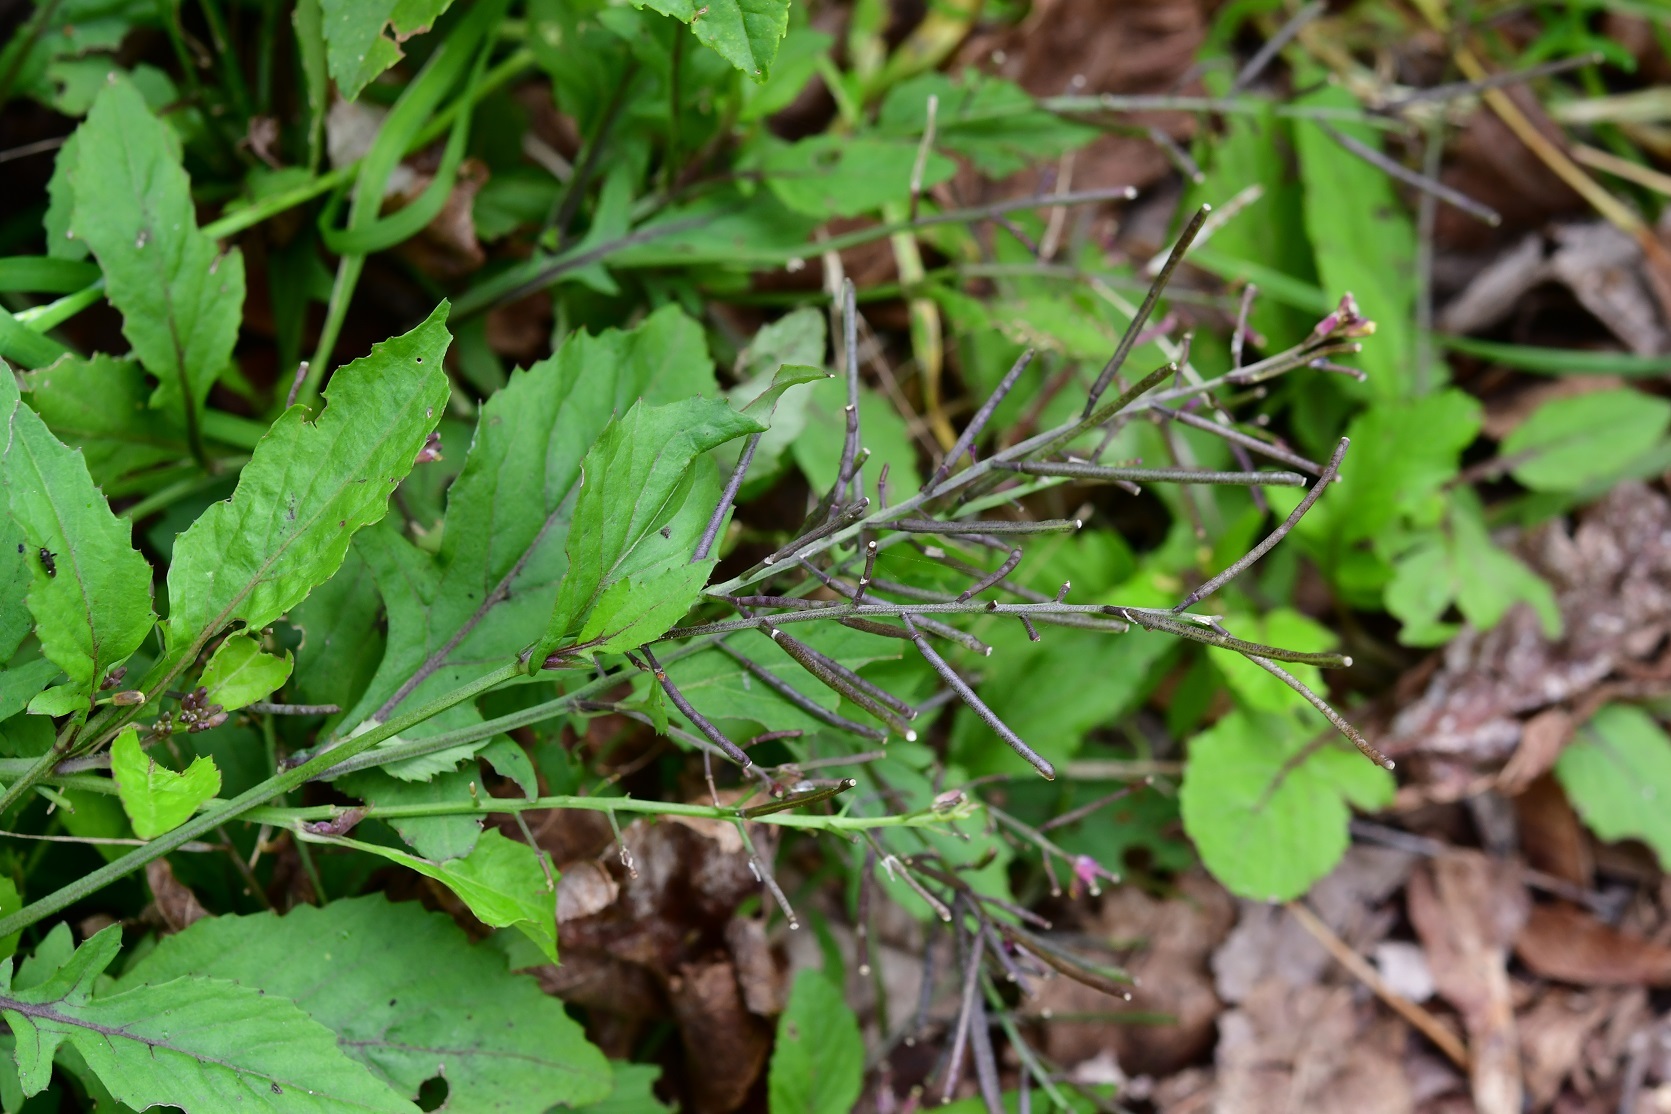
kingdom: Plantae
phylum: Tracheophyta
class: Magnoliopsida
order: Brassicales
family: Brassicaceae
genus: Rorippa
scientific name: Rorippa dubia
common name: Variableleaf yellowcress
